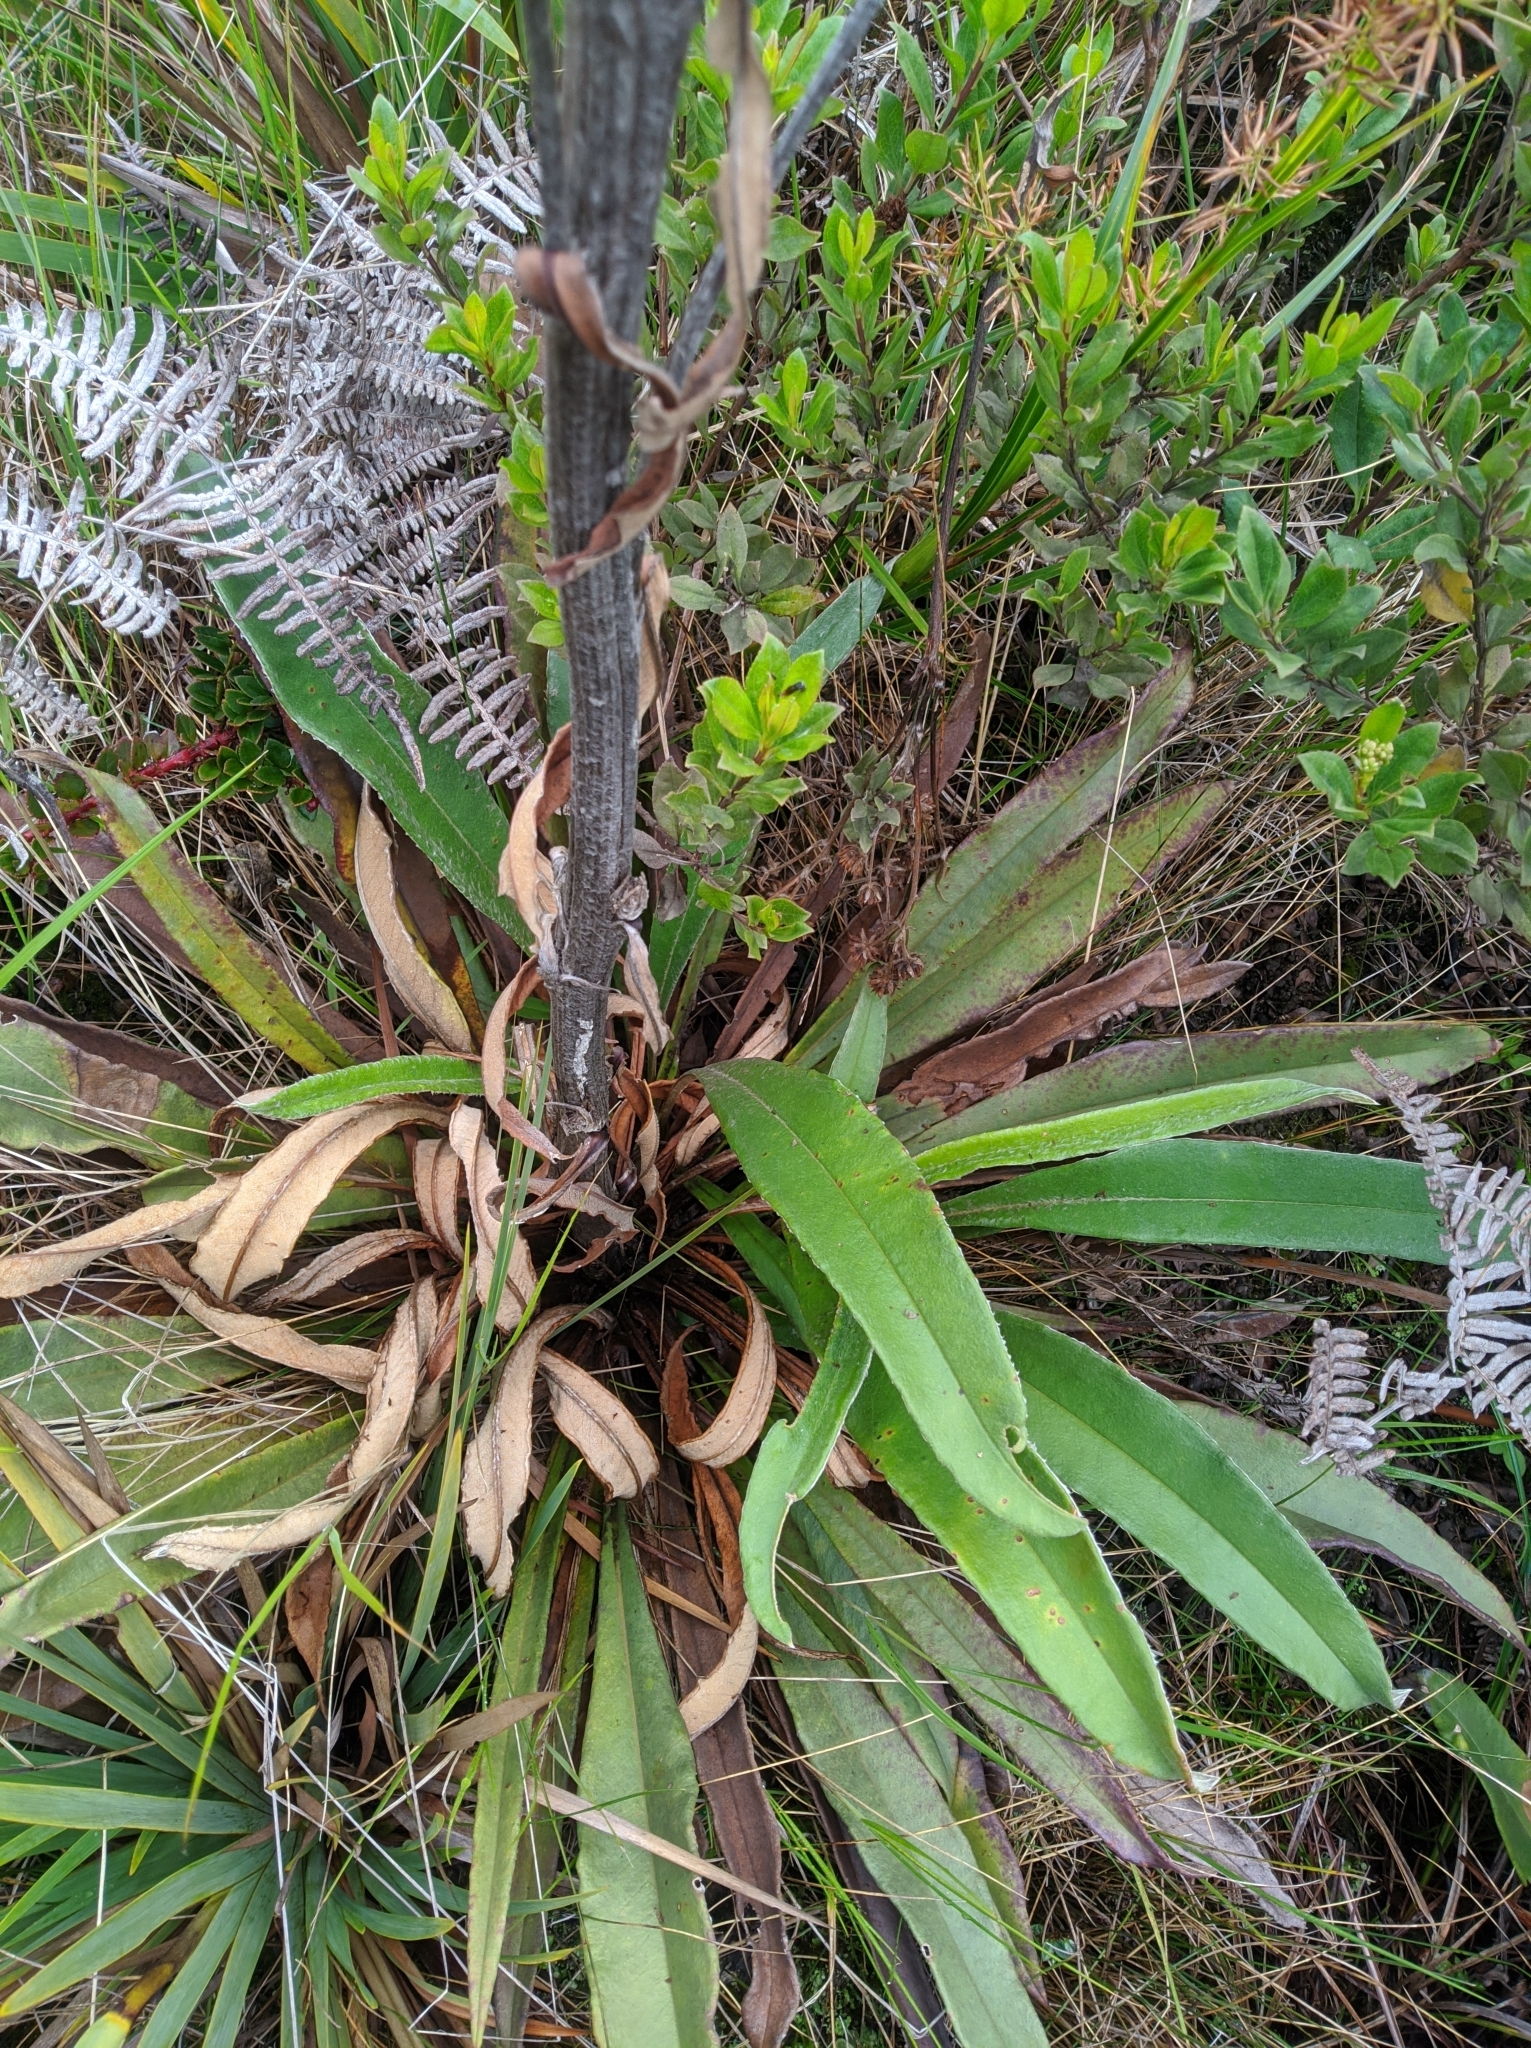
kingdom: Plantae
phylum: Tracheophyta
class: Magnoliopsida
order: Asterales
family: Asteraceae
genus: Espeletia
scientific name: Espeletia bracteosa
